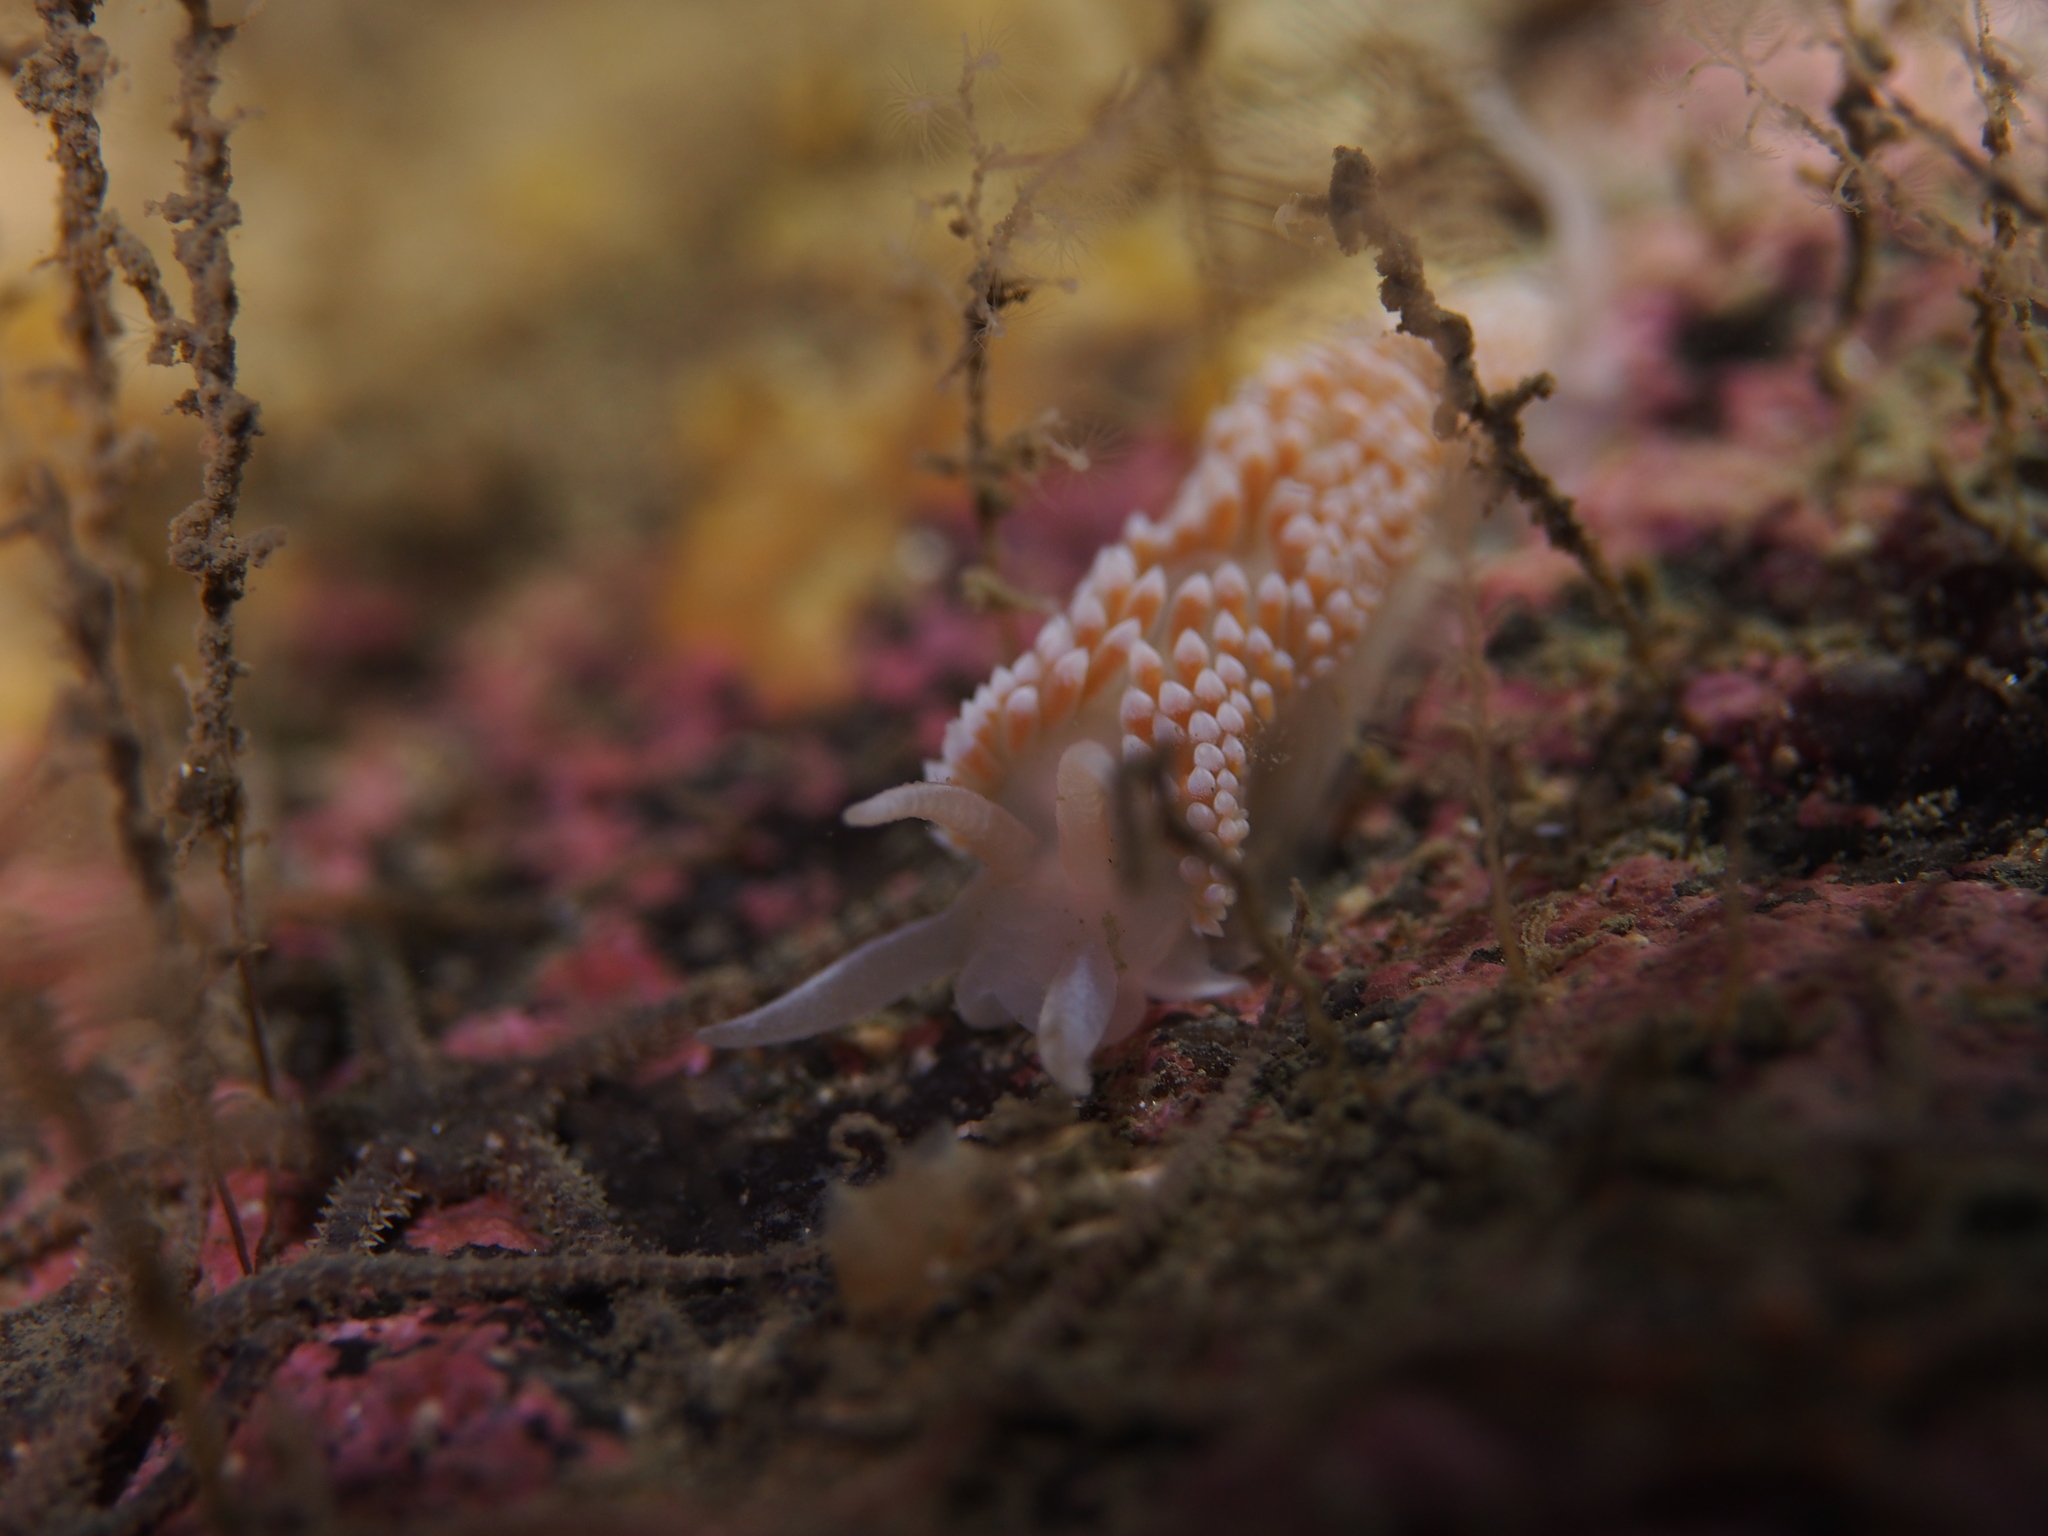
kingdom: Animalia
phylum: Mollusca
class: Gastropoda
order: Nudibranchia
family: Coryphellidae
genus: Coryphella
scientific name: Coryphella verrucosa
